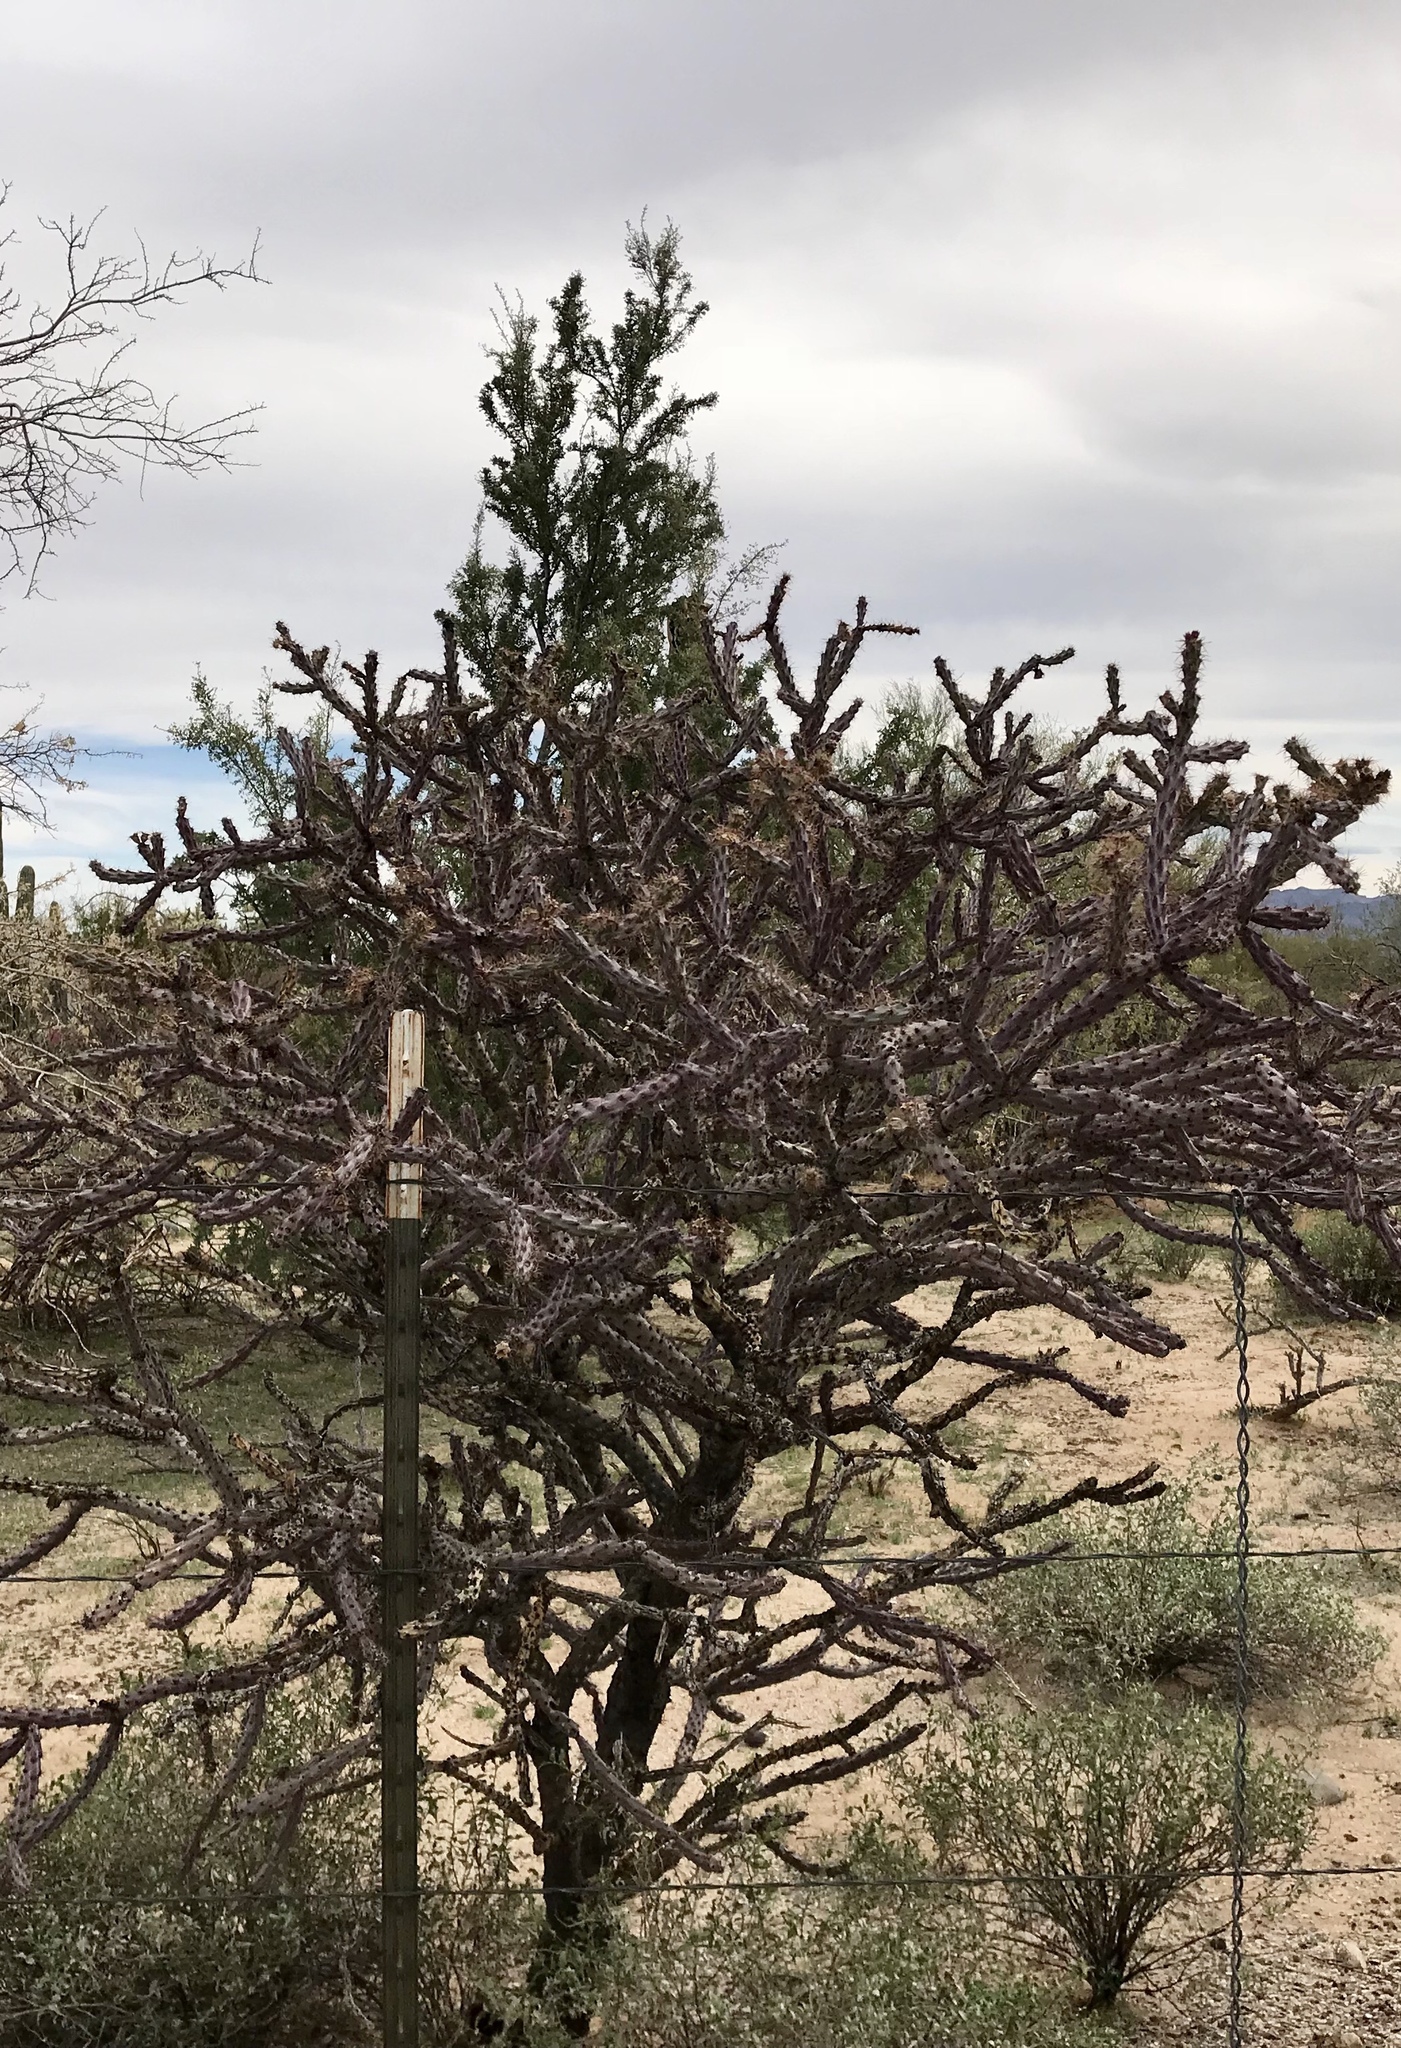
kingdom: Plantae
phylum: Tracheophyta
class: Magnoliopsida
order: Caryophyllales
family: Cactaceae
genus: Cylindropuntia
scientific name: Cylindropuntia thurberi
